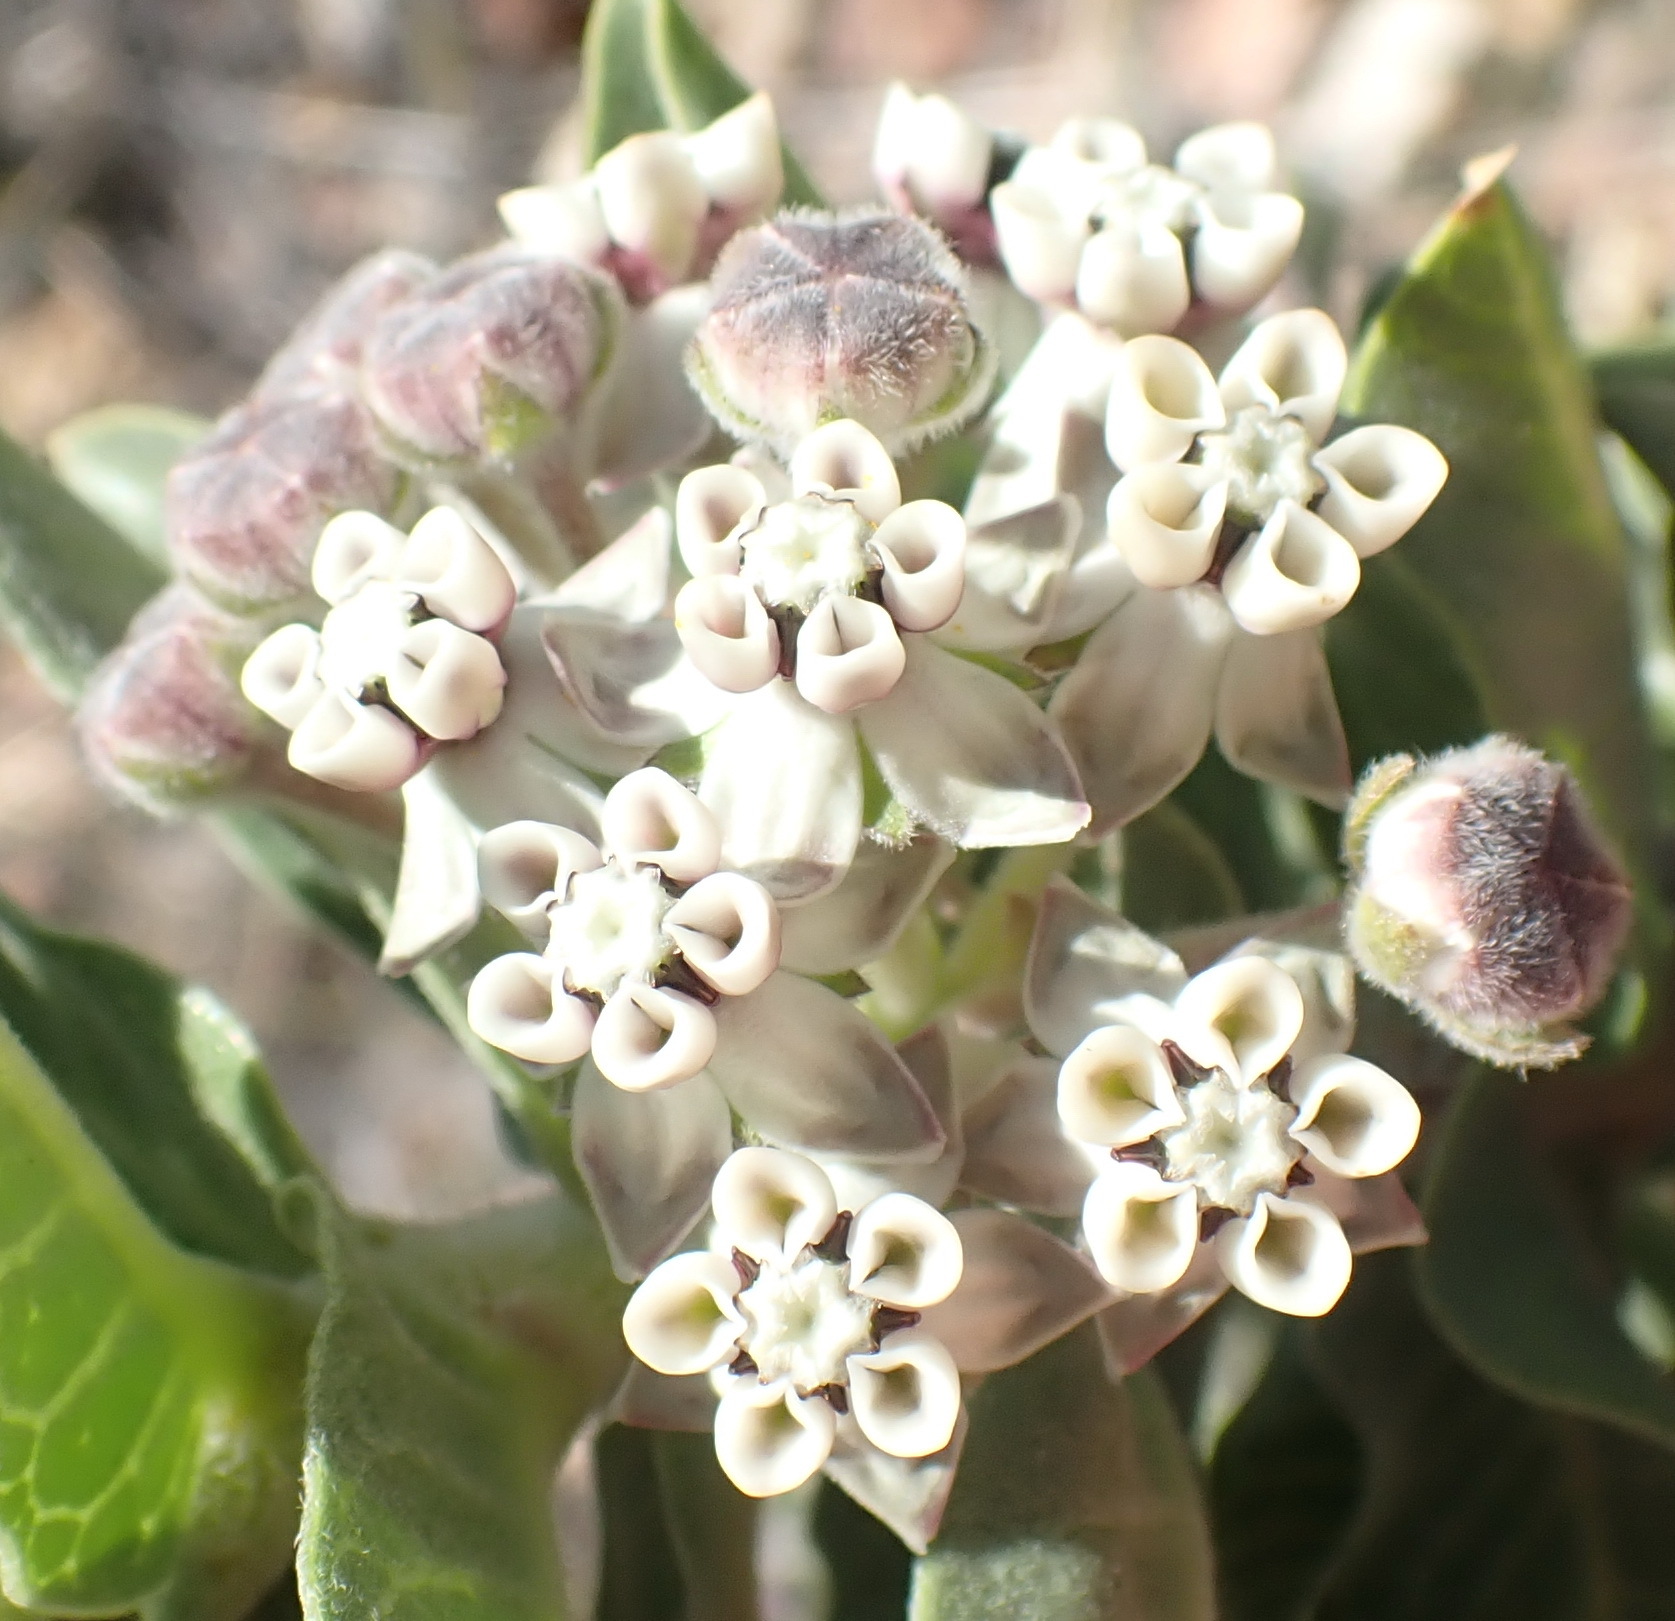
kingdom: Plantae
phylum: Tracheophyta
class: Magnoliopsida
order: Gentianales
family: Apocynaceae
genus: Gomphocarpus
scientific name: Gomphocarpus cancellatus
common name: Wild cotton
